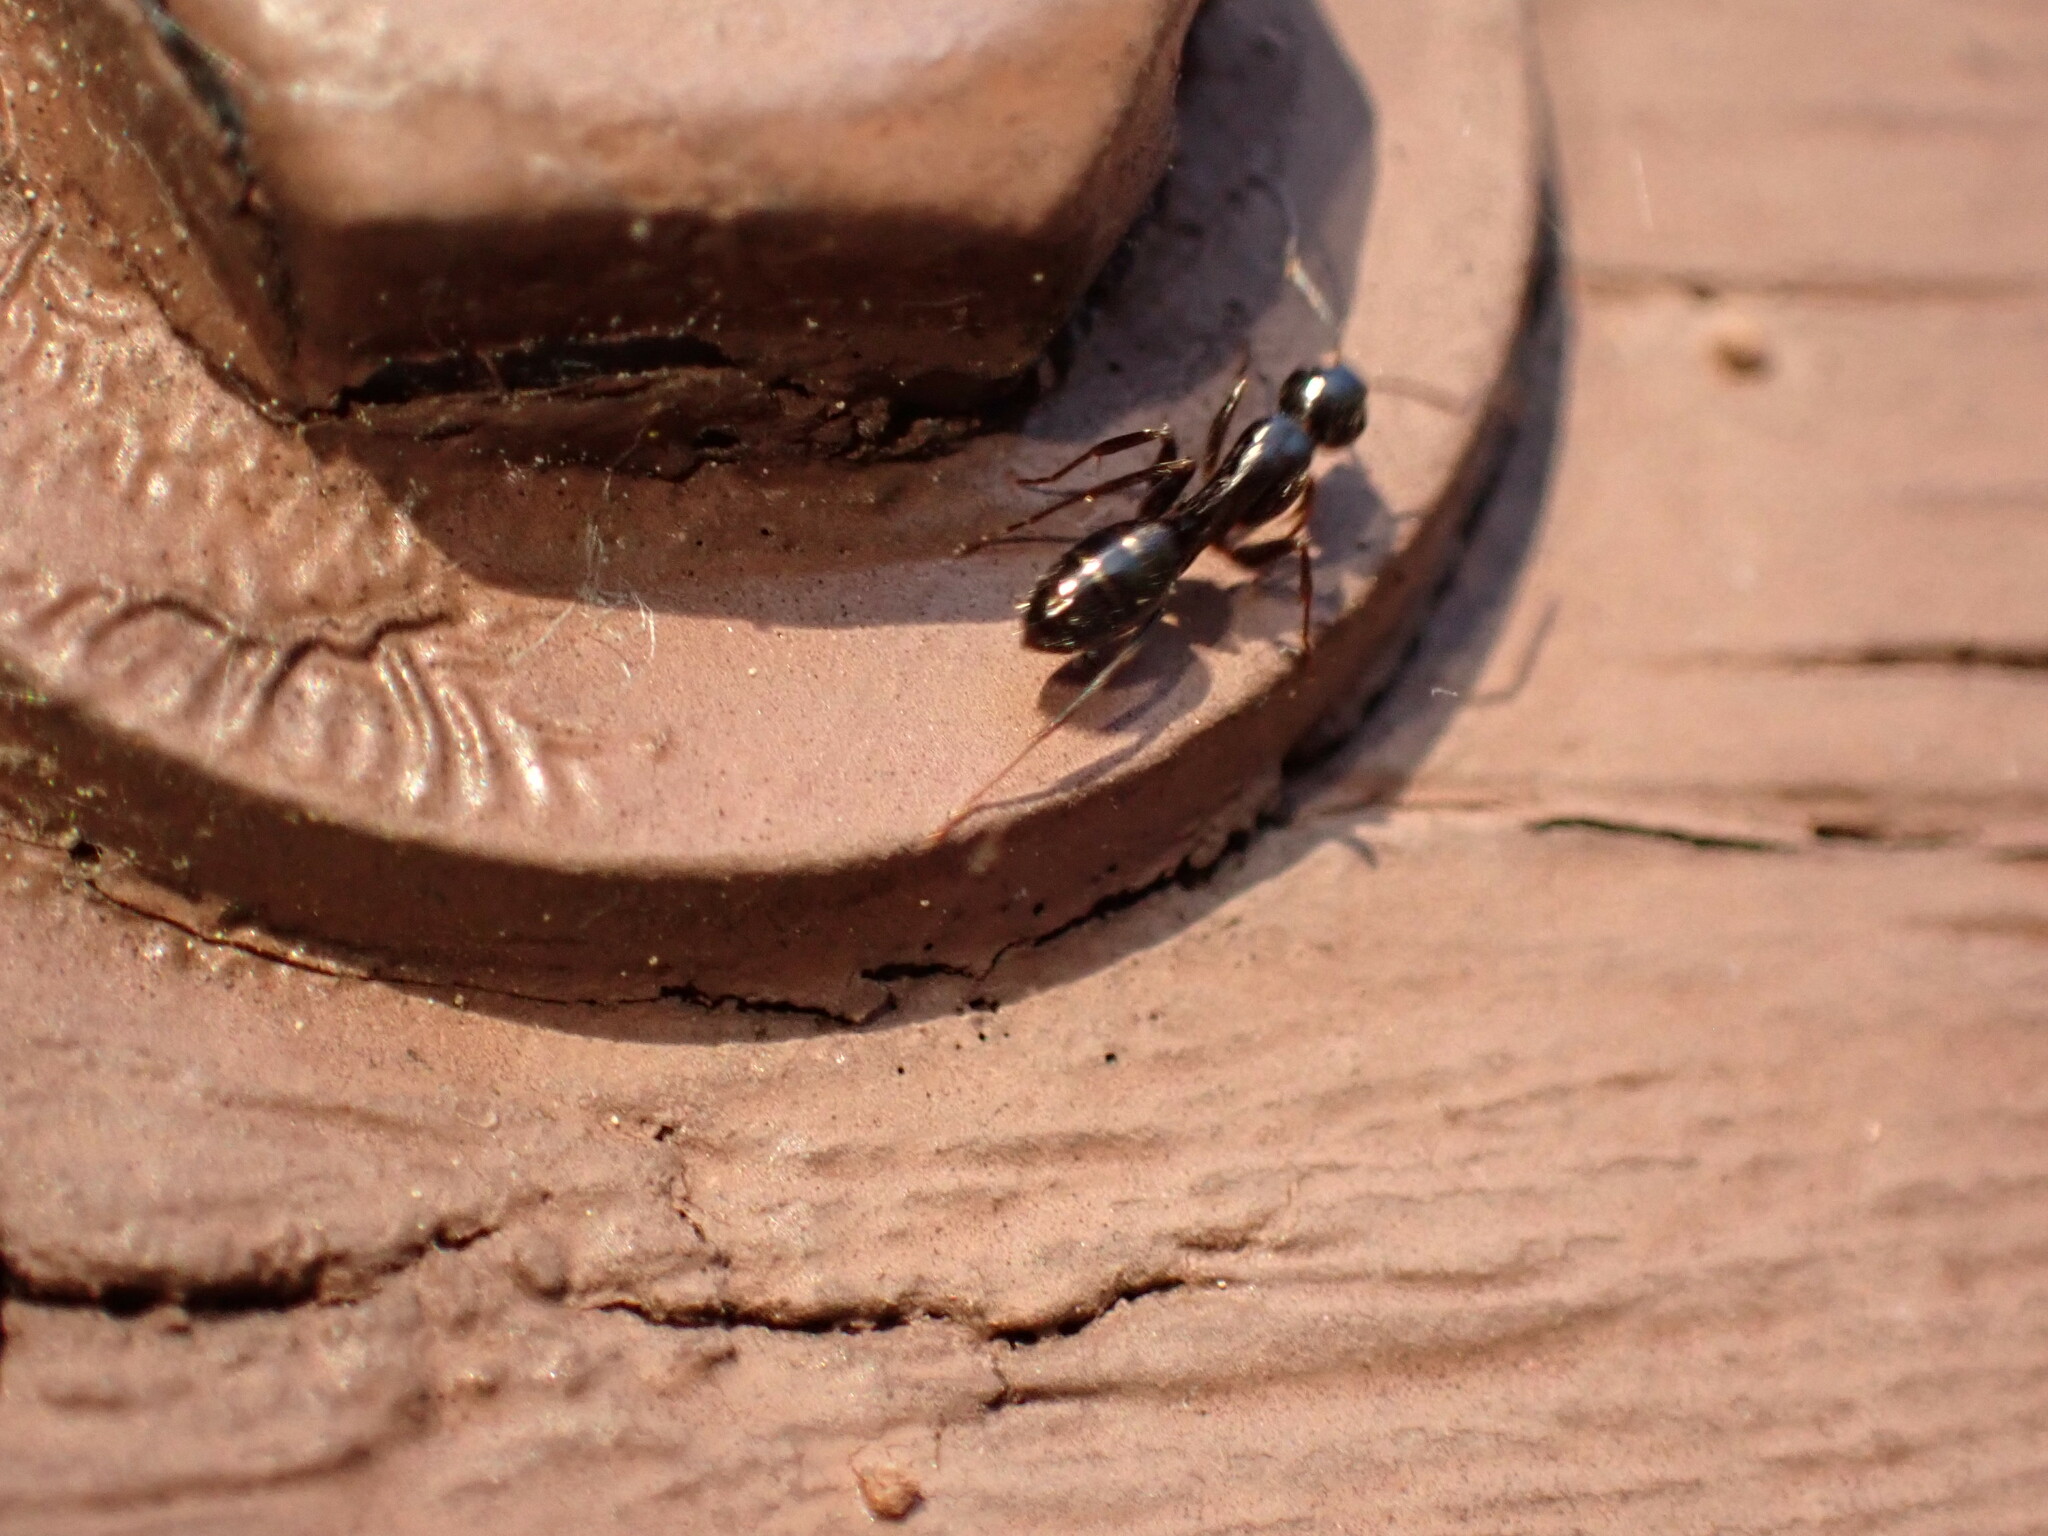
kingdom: Animalia
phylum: Arthropoda
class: Insecta
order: Hymenoptera
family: Formicidae
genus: Camponotus
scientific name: Camponotus nearcticus
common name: Smaller carpenter ant
